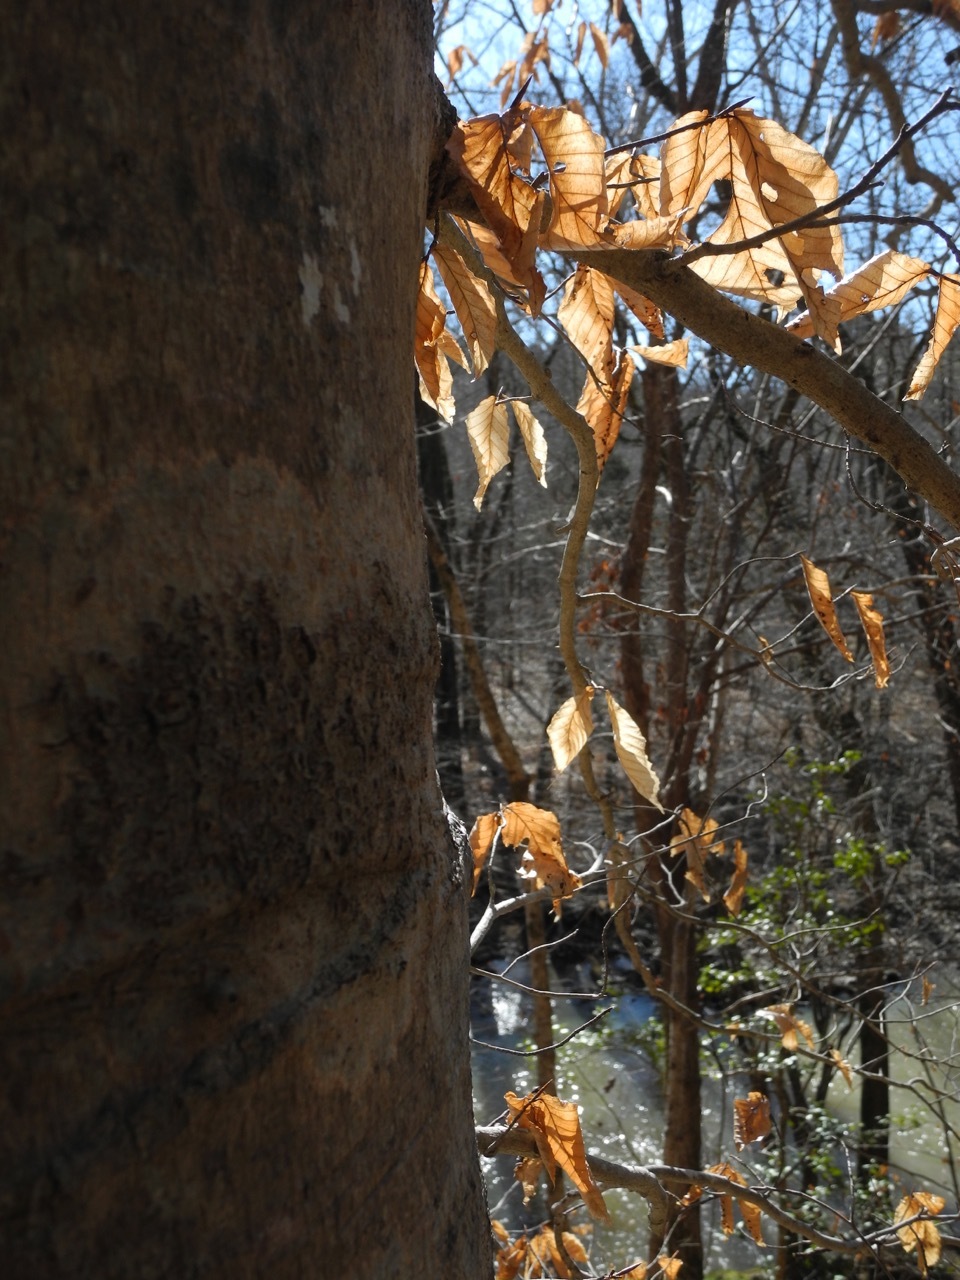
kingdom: Plantae
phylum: Tracheophyta
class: Magnoliopsida
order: Fagales
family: Fagaceae
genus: Fagus
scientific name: Fagus grandifolia
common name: American beech
